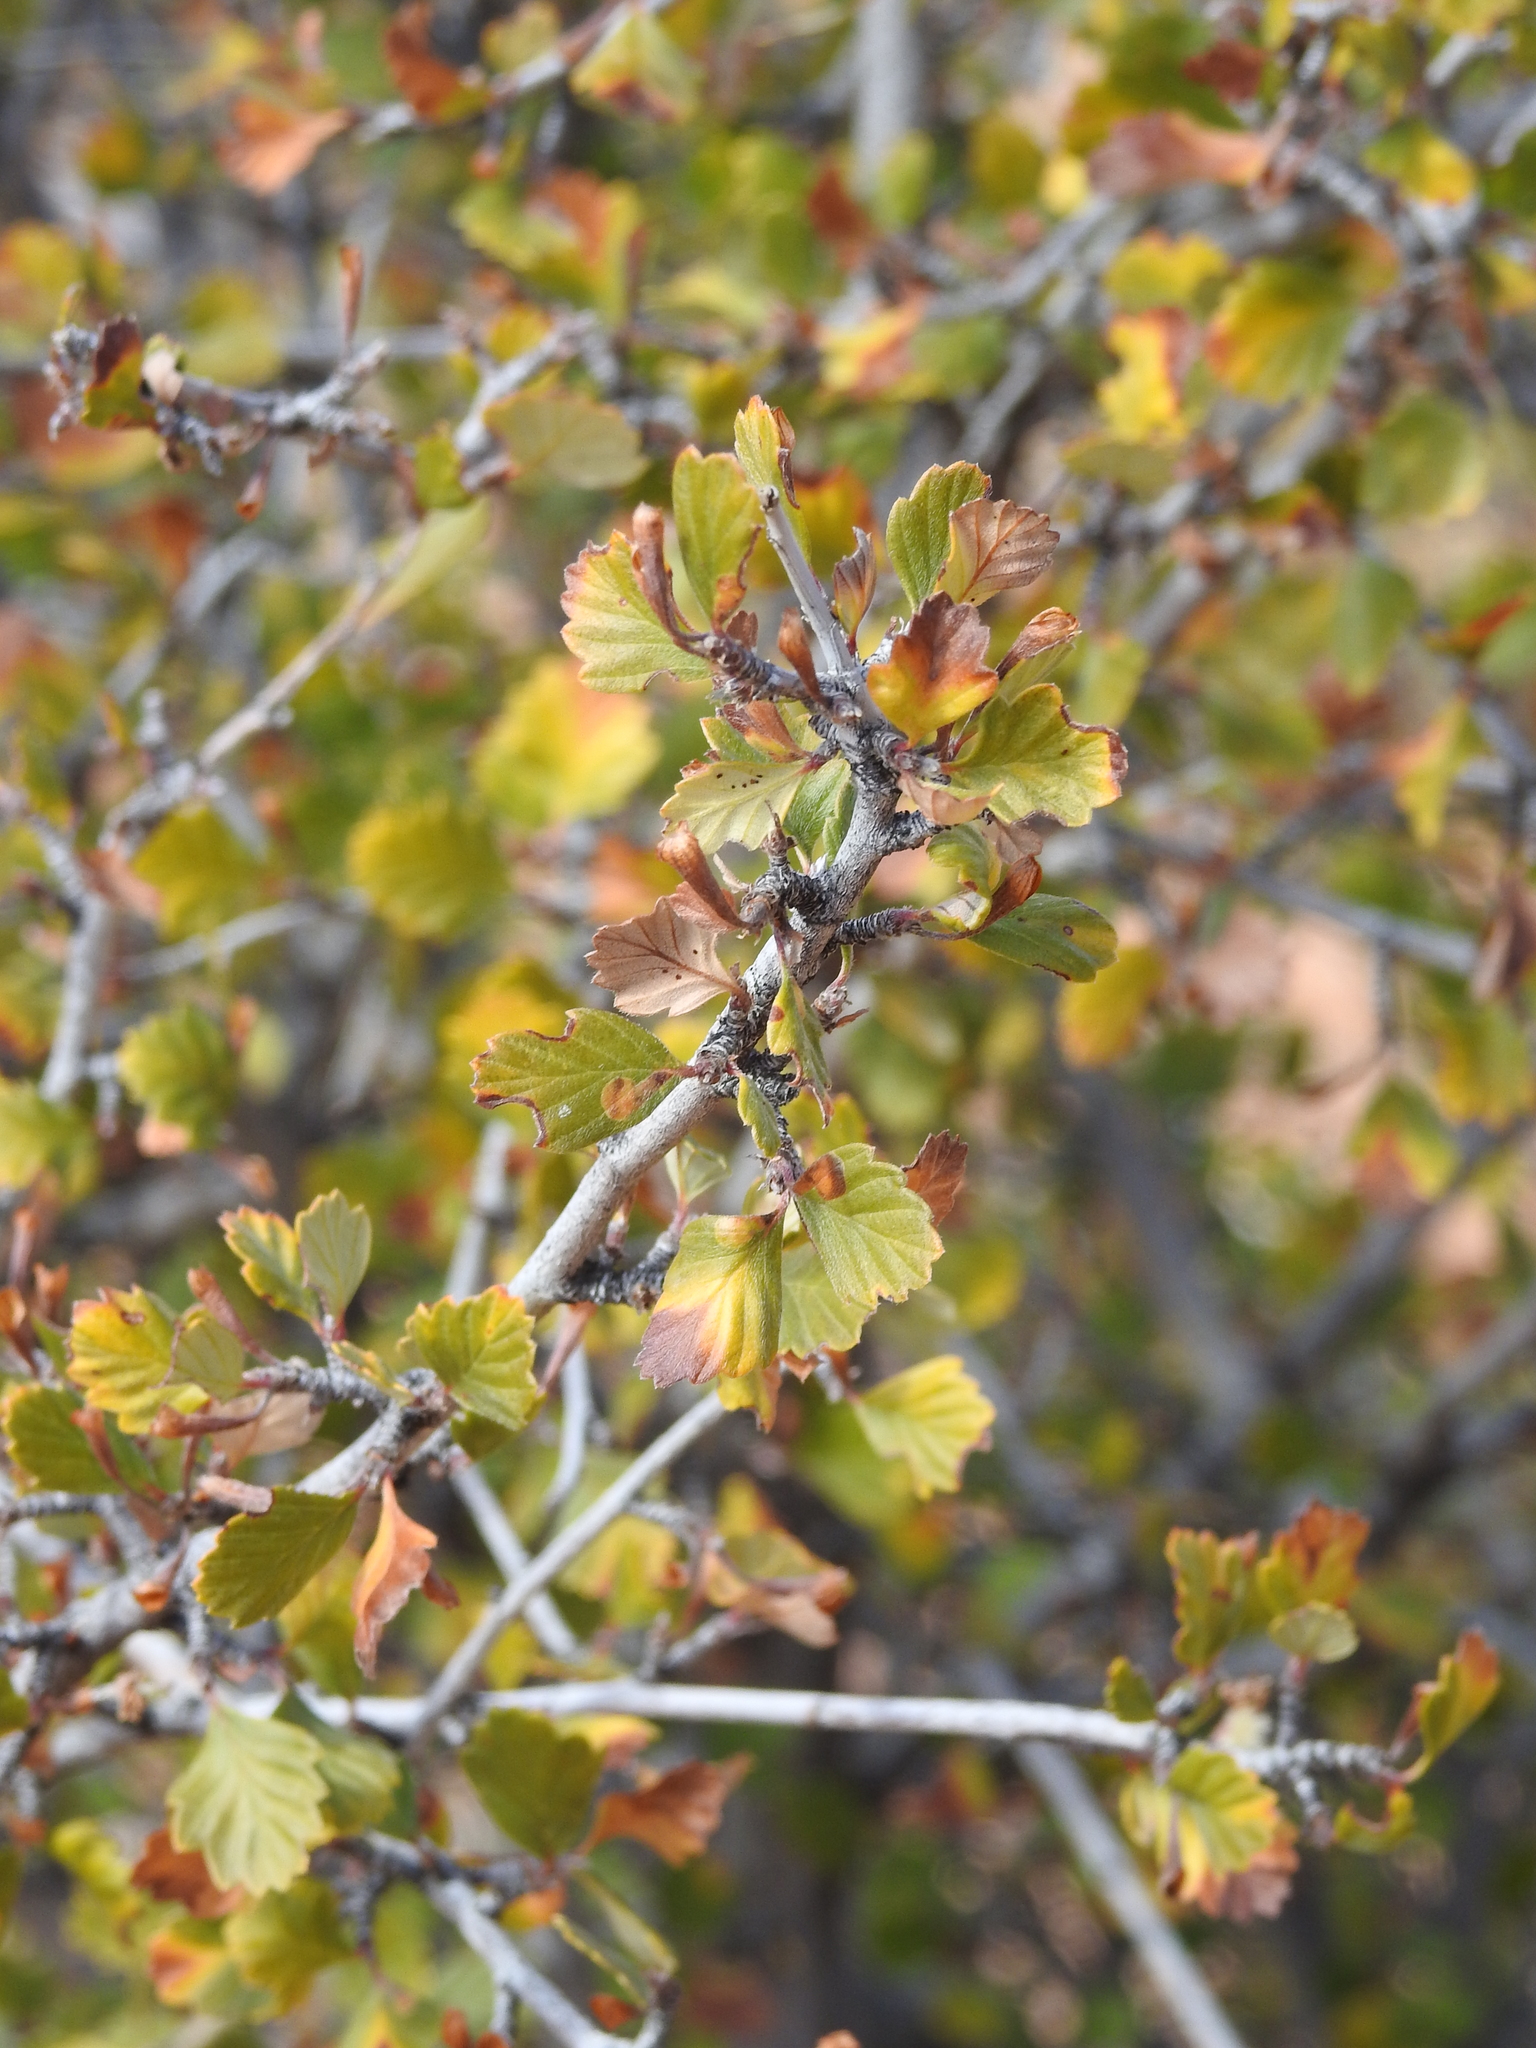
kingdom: Plantae
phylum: Tracheophyta
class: Magnoliopsida
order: Rosales
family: Rosaceae
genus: Cercocarpus
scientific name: Cercocarpus montanus
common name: Alder-leaf cercocarpus
